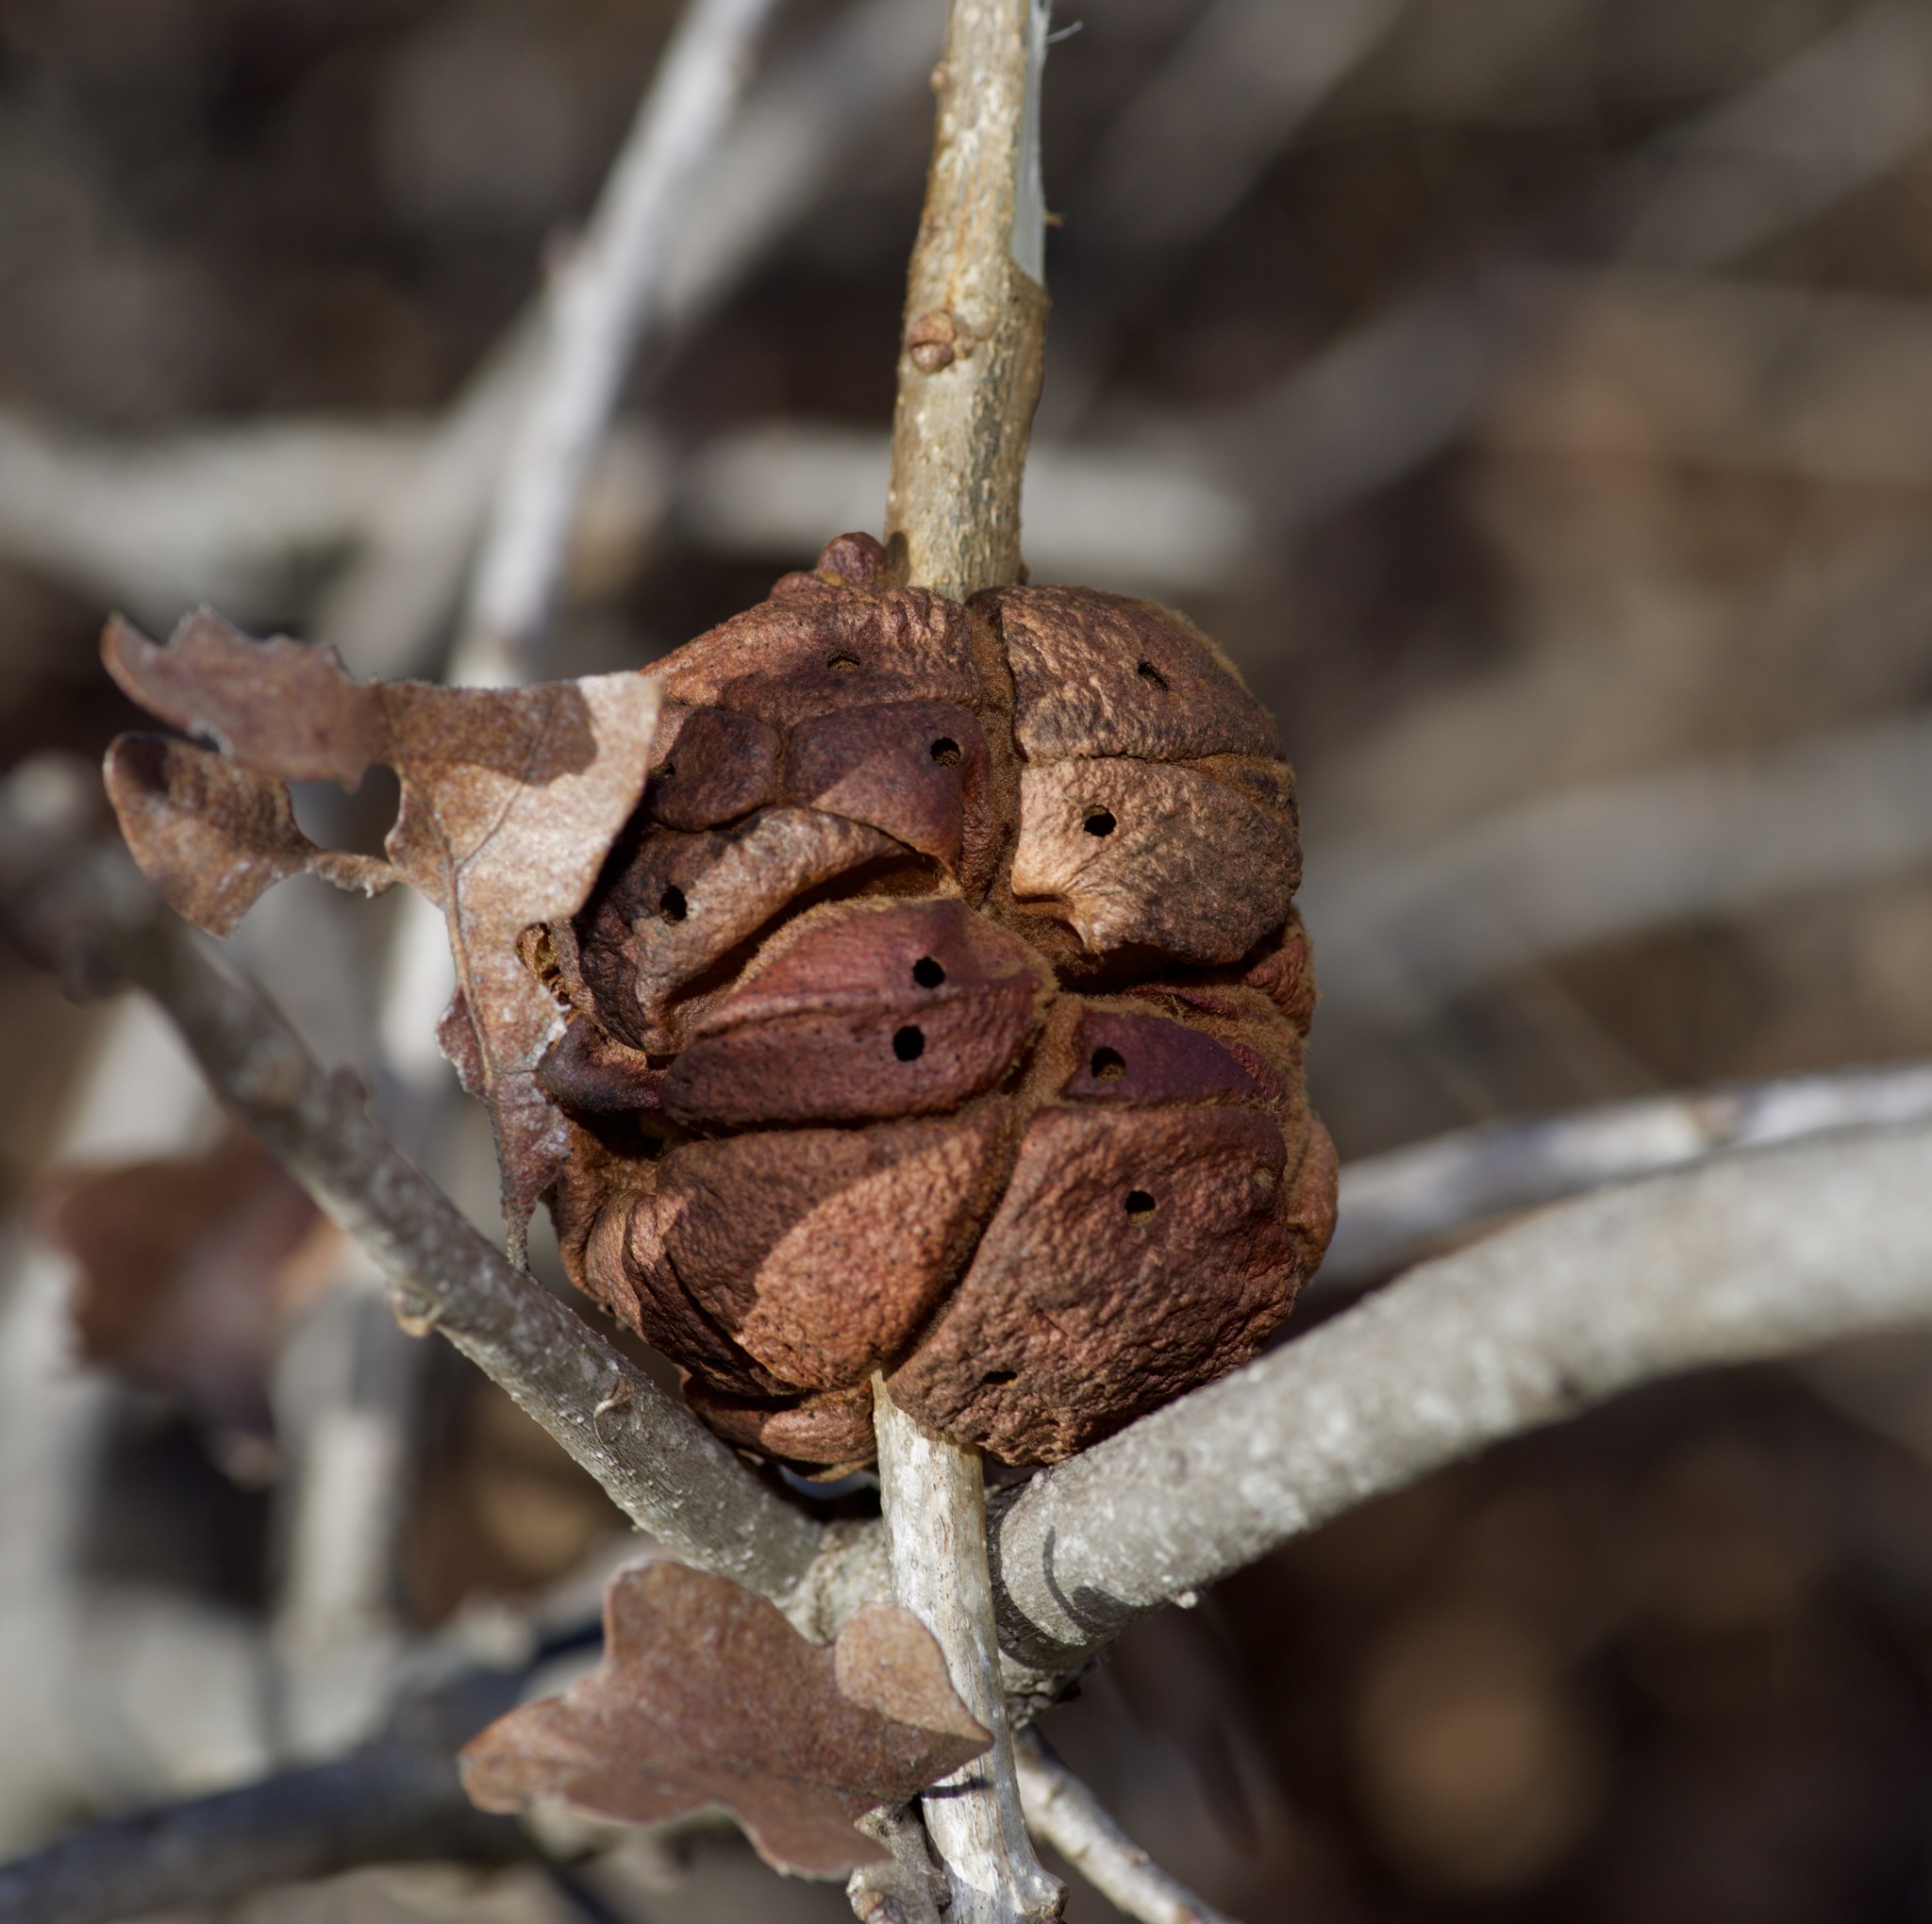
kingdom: Animalia
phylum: Arthropoda
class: Insecta
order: Hymenoptera
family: Cynipidae
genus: Disholcaspis
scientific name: Disholcaspis
